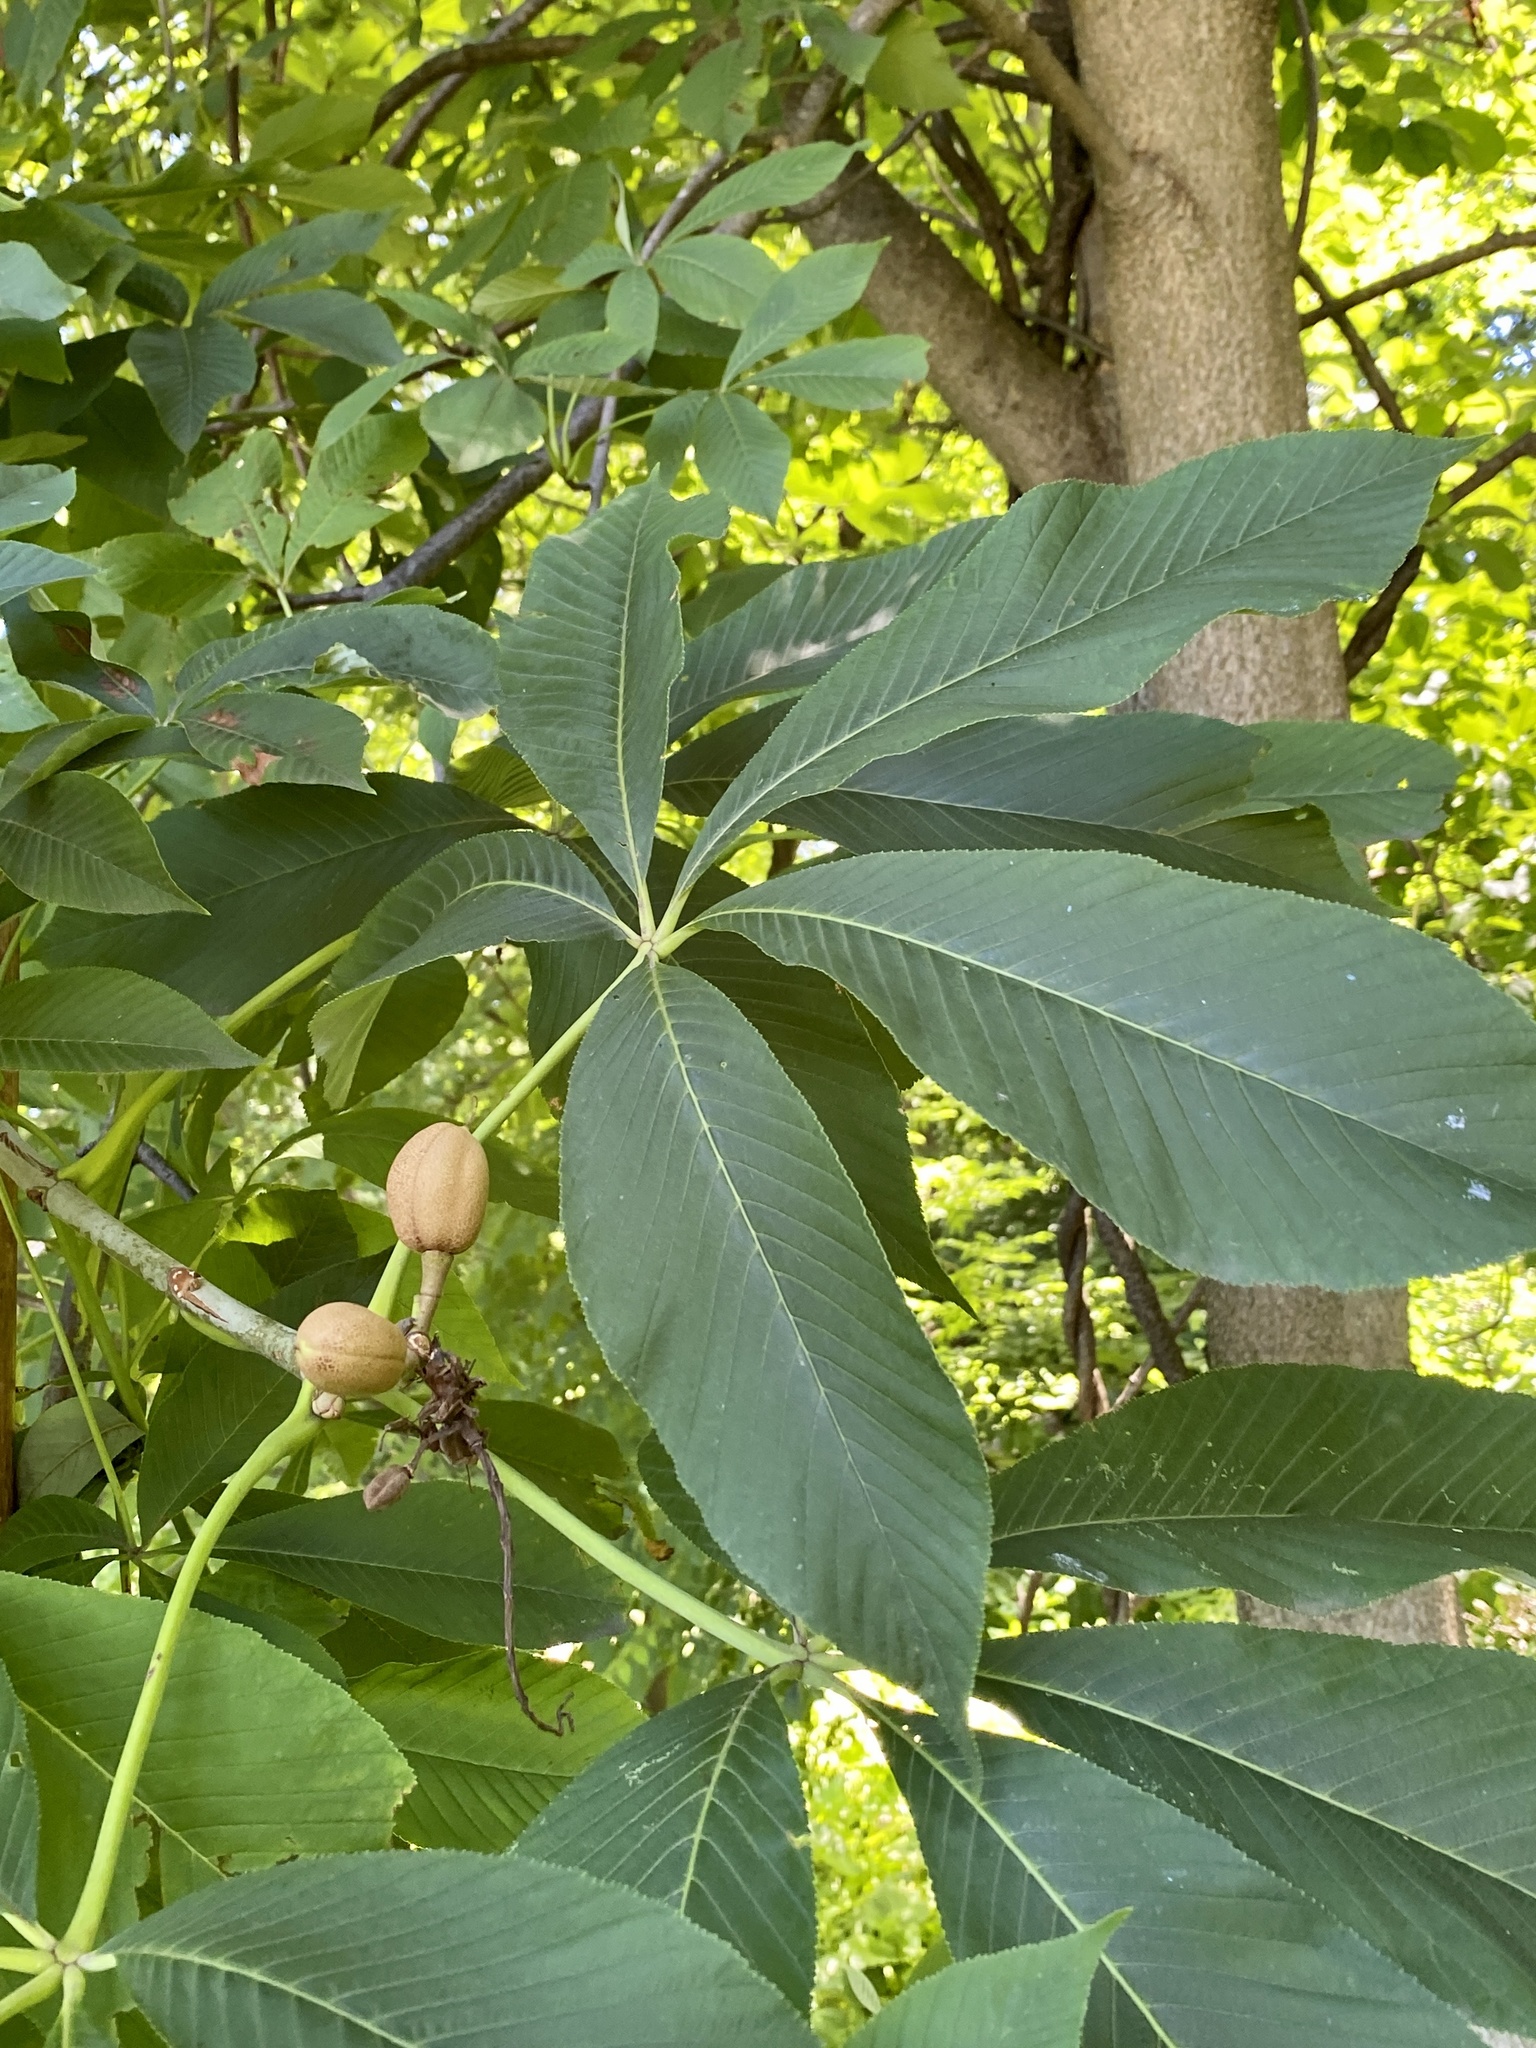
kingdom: Plantae
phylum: Tracheophyta
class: Magnoliopsida
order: Sapindales
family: Sapindaceae
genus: Aesculus
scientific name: Aesculus flava
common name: Yellow buckeye
